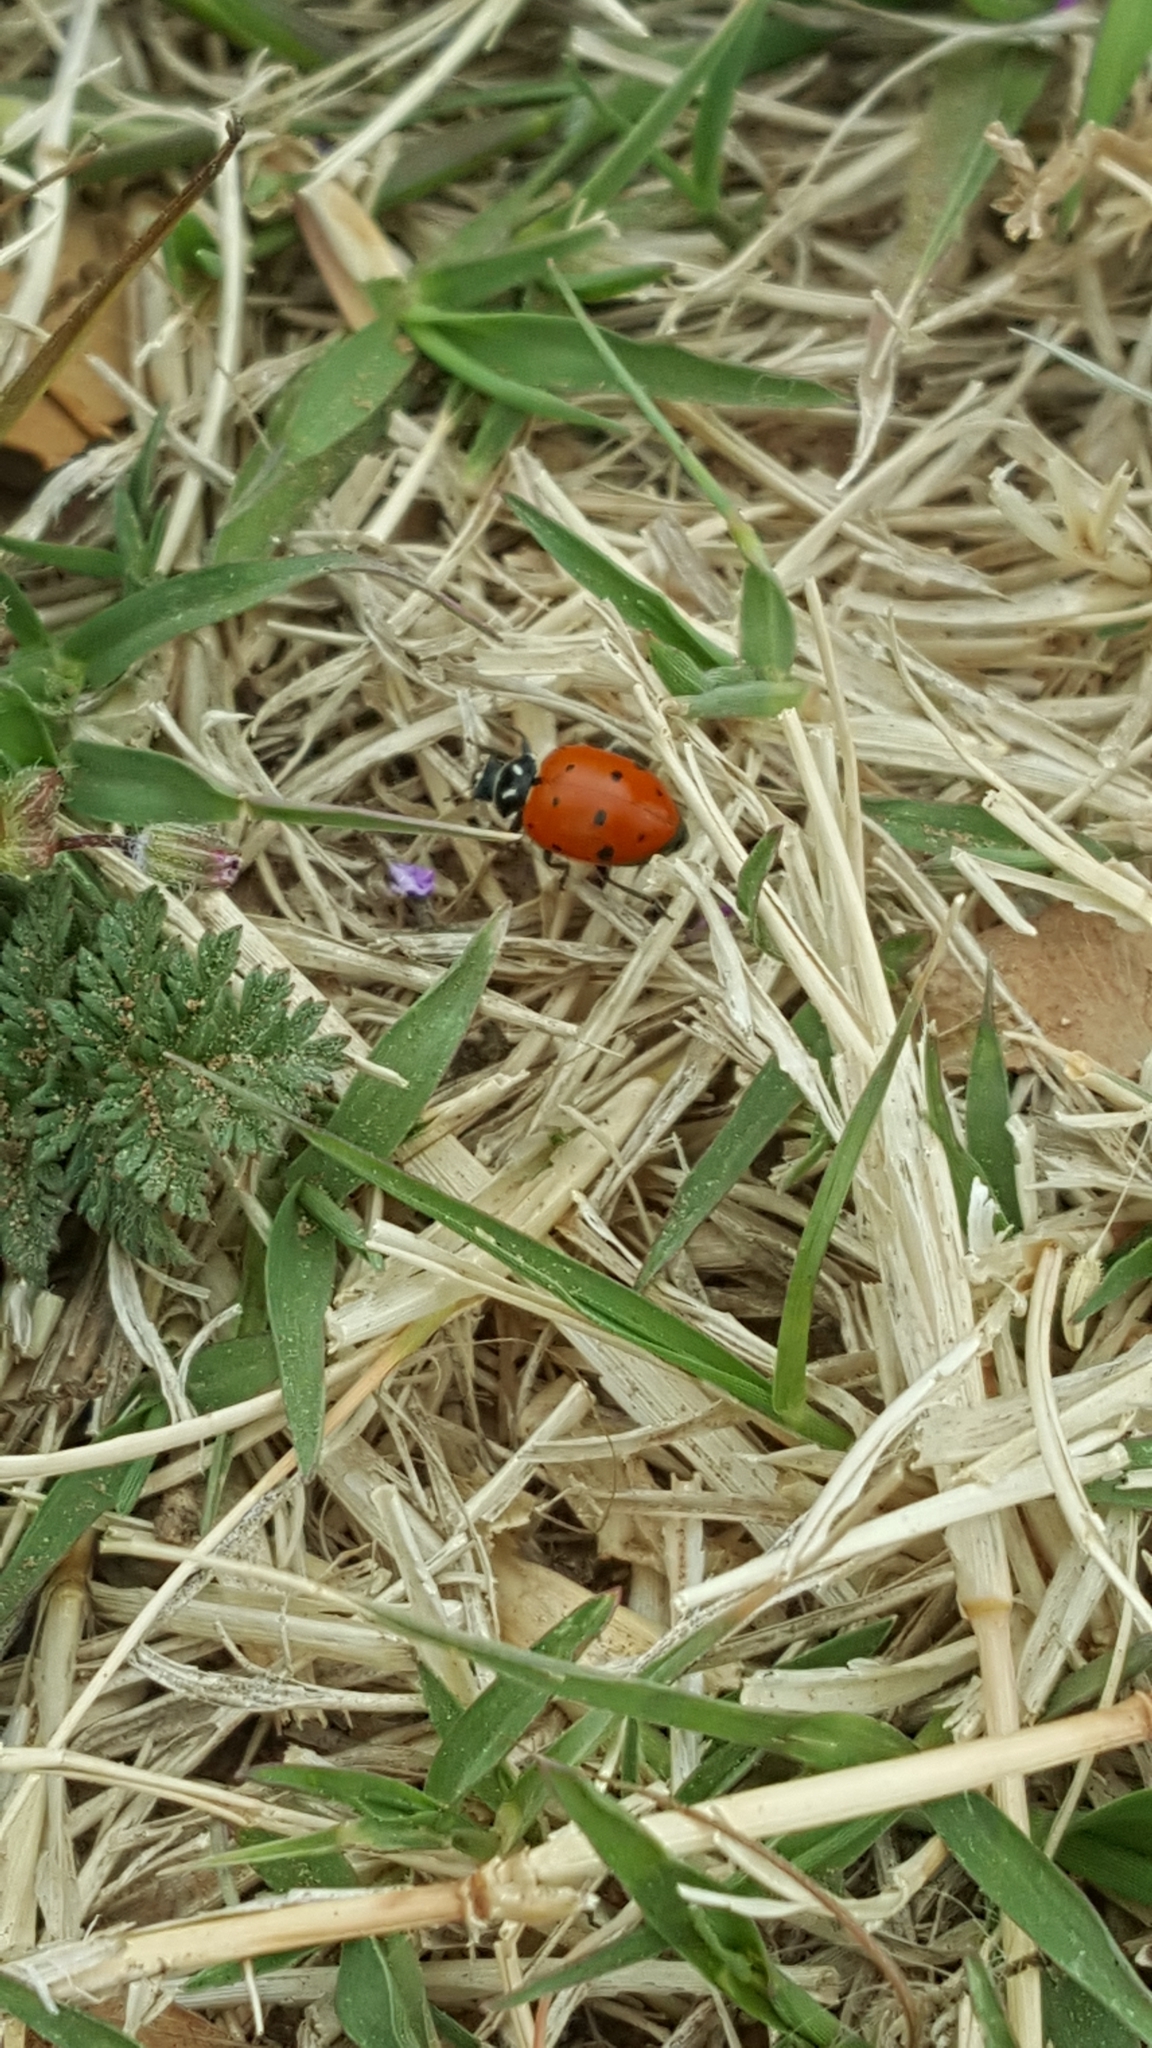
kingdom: Animalia
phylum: Arthropoda
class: Insecta
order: Coleoptera
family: Coccinellidae
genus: Hippodamia
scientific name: Hippodamia convergens
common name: Convergent lady beetle
